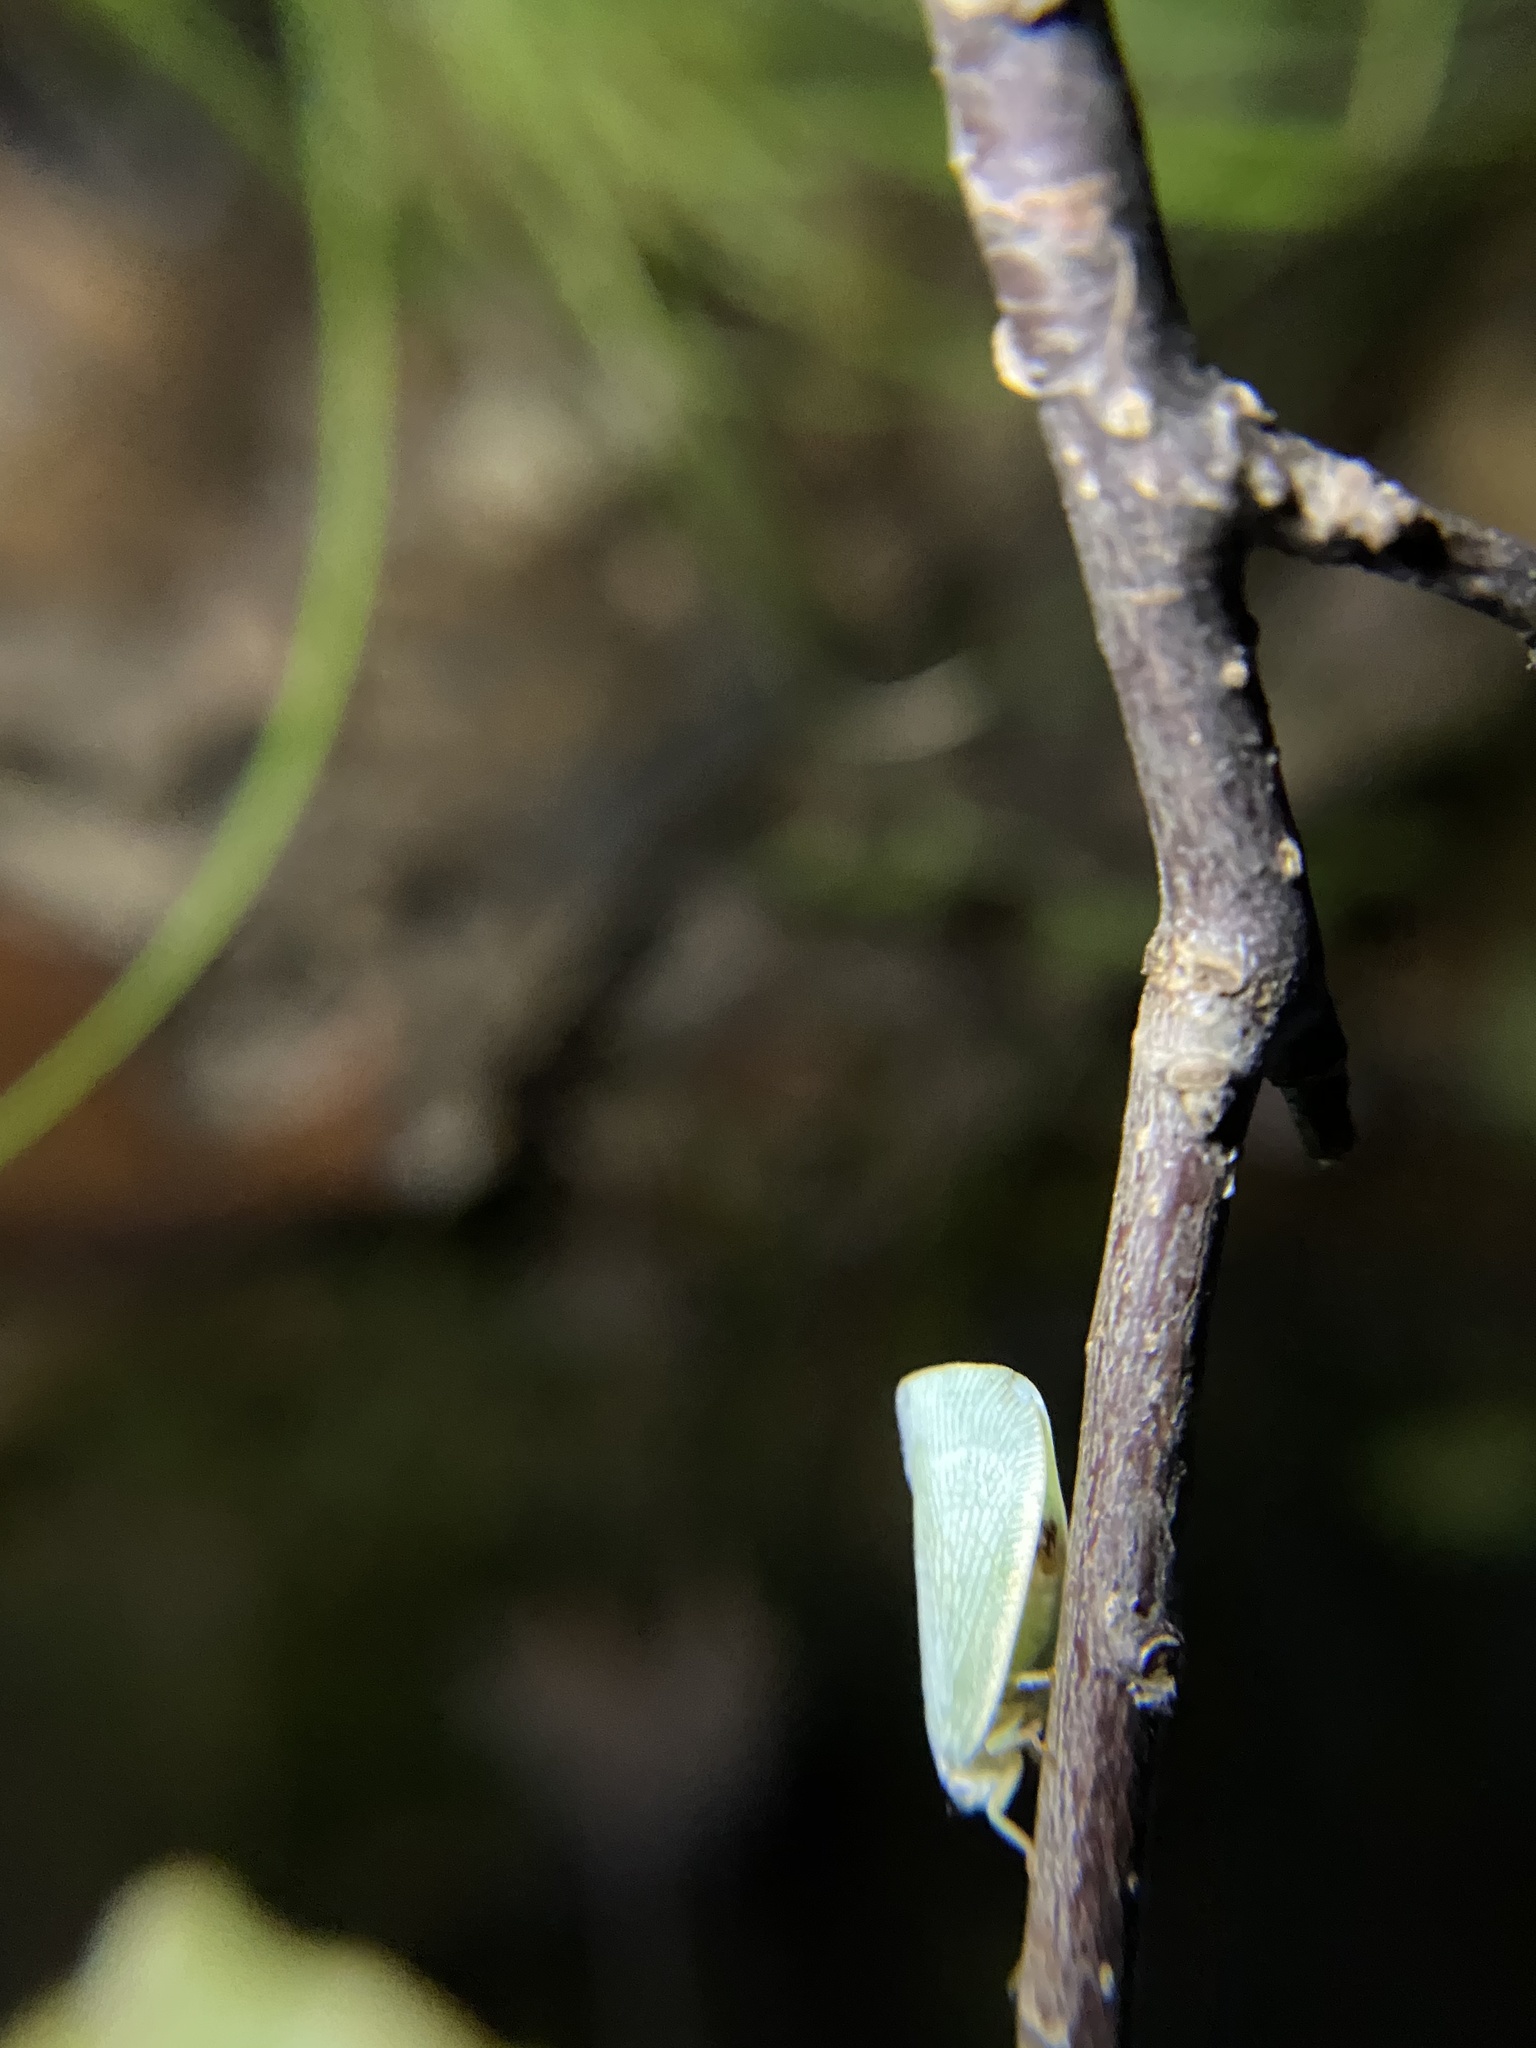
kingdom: Animalia
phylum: Arthropoda
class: Insecta
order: Hemiptera
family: Flatidae
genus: Flatormenis
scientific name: Flatormenis proxima
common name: Northern flatid planthopper
